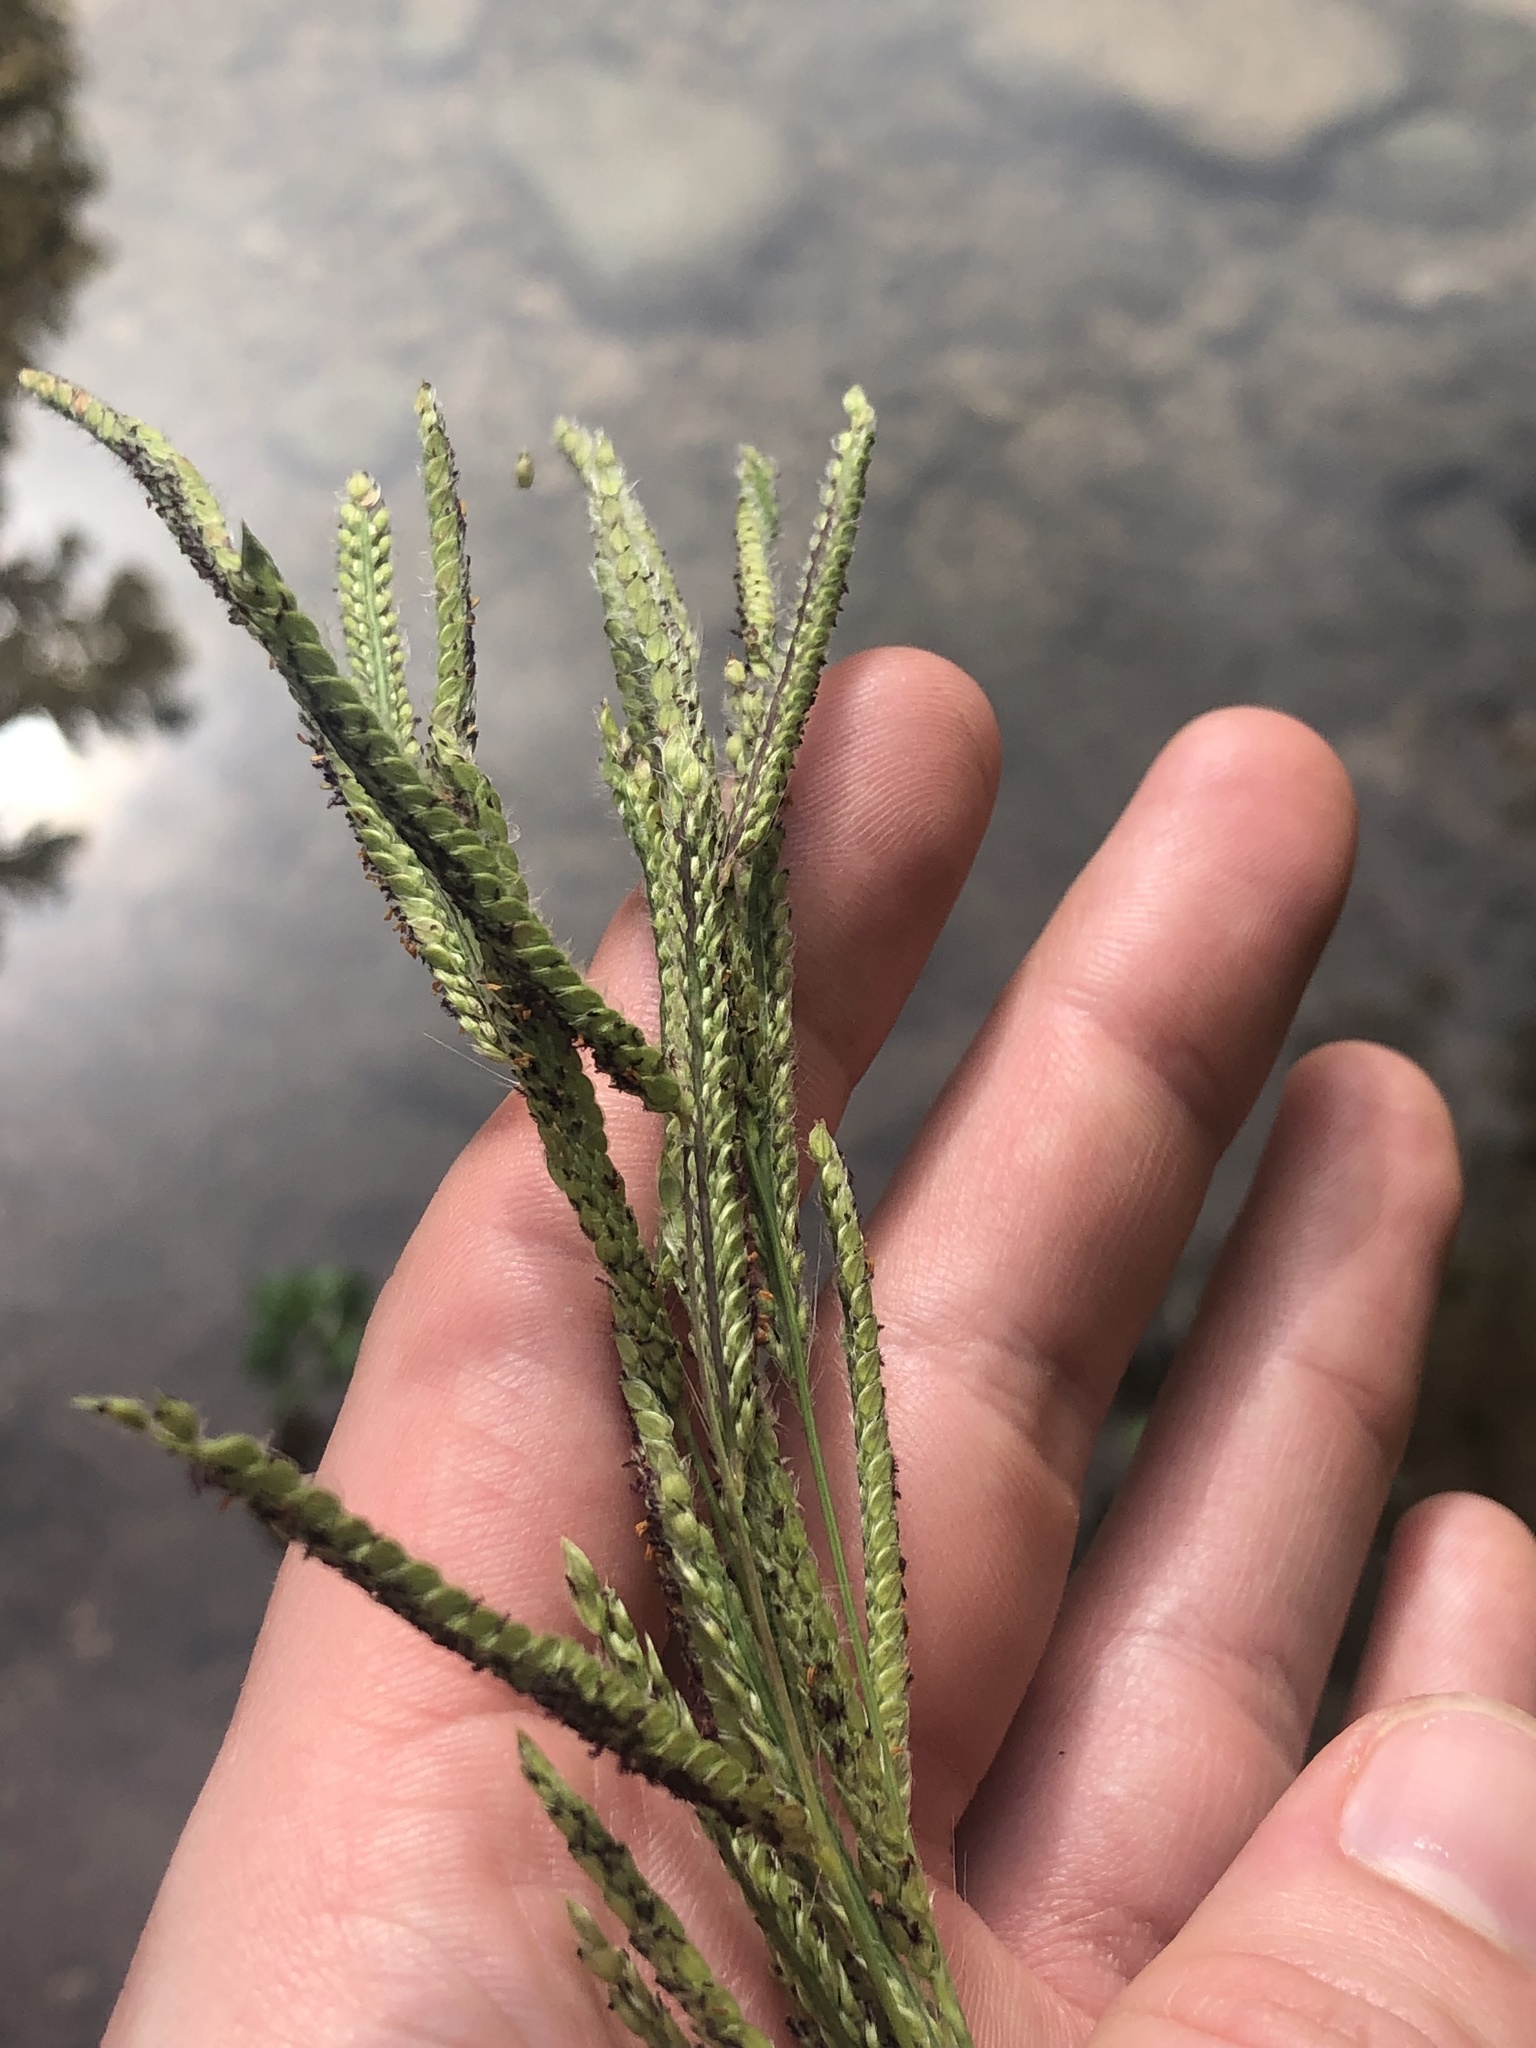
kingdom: Plantae
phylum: Tracheophyta
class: Liliopsida
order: Poales
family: Poaceae
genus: Paspalum
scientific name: Paspalum urvillei
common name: Vasey's grass
